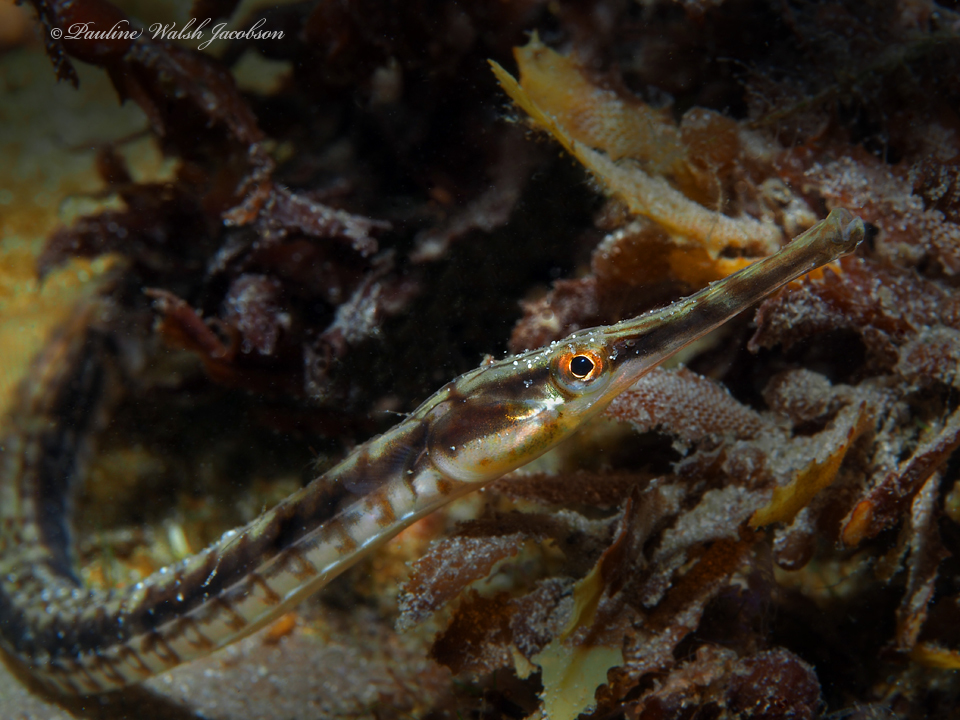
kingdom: Animalia
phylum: Chordata
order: Syngnathiformes
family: Syngnathidae
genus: Syngnathus
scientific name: Syngnathus louisianae
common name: Chain pipefish
